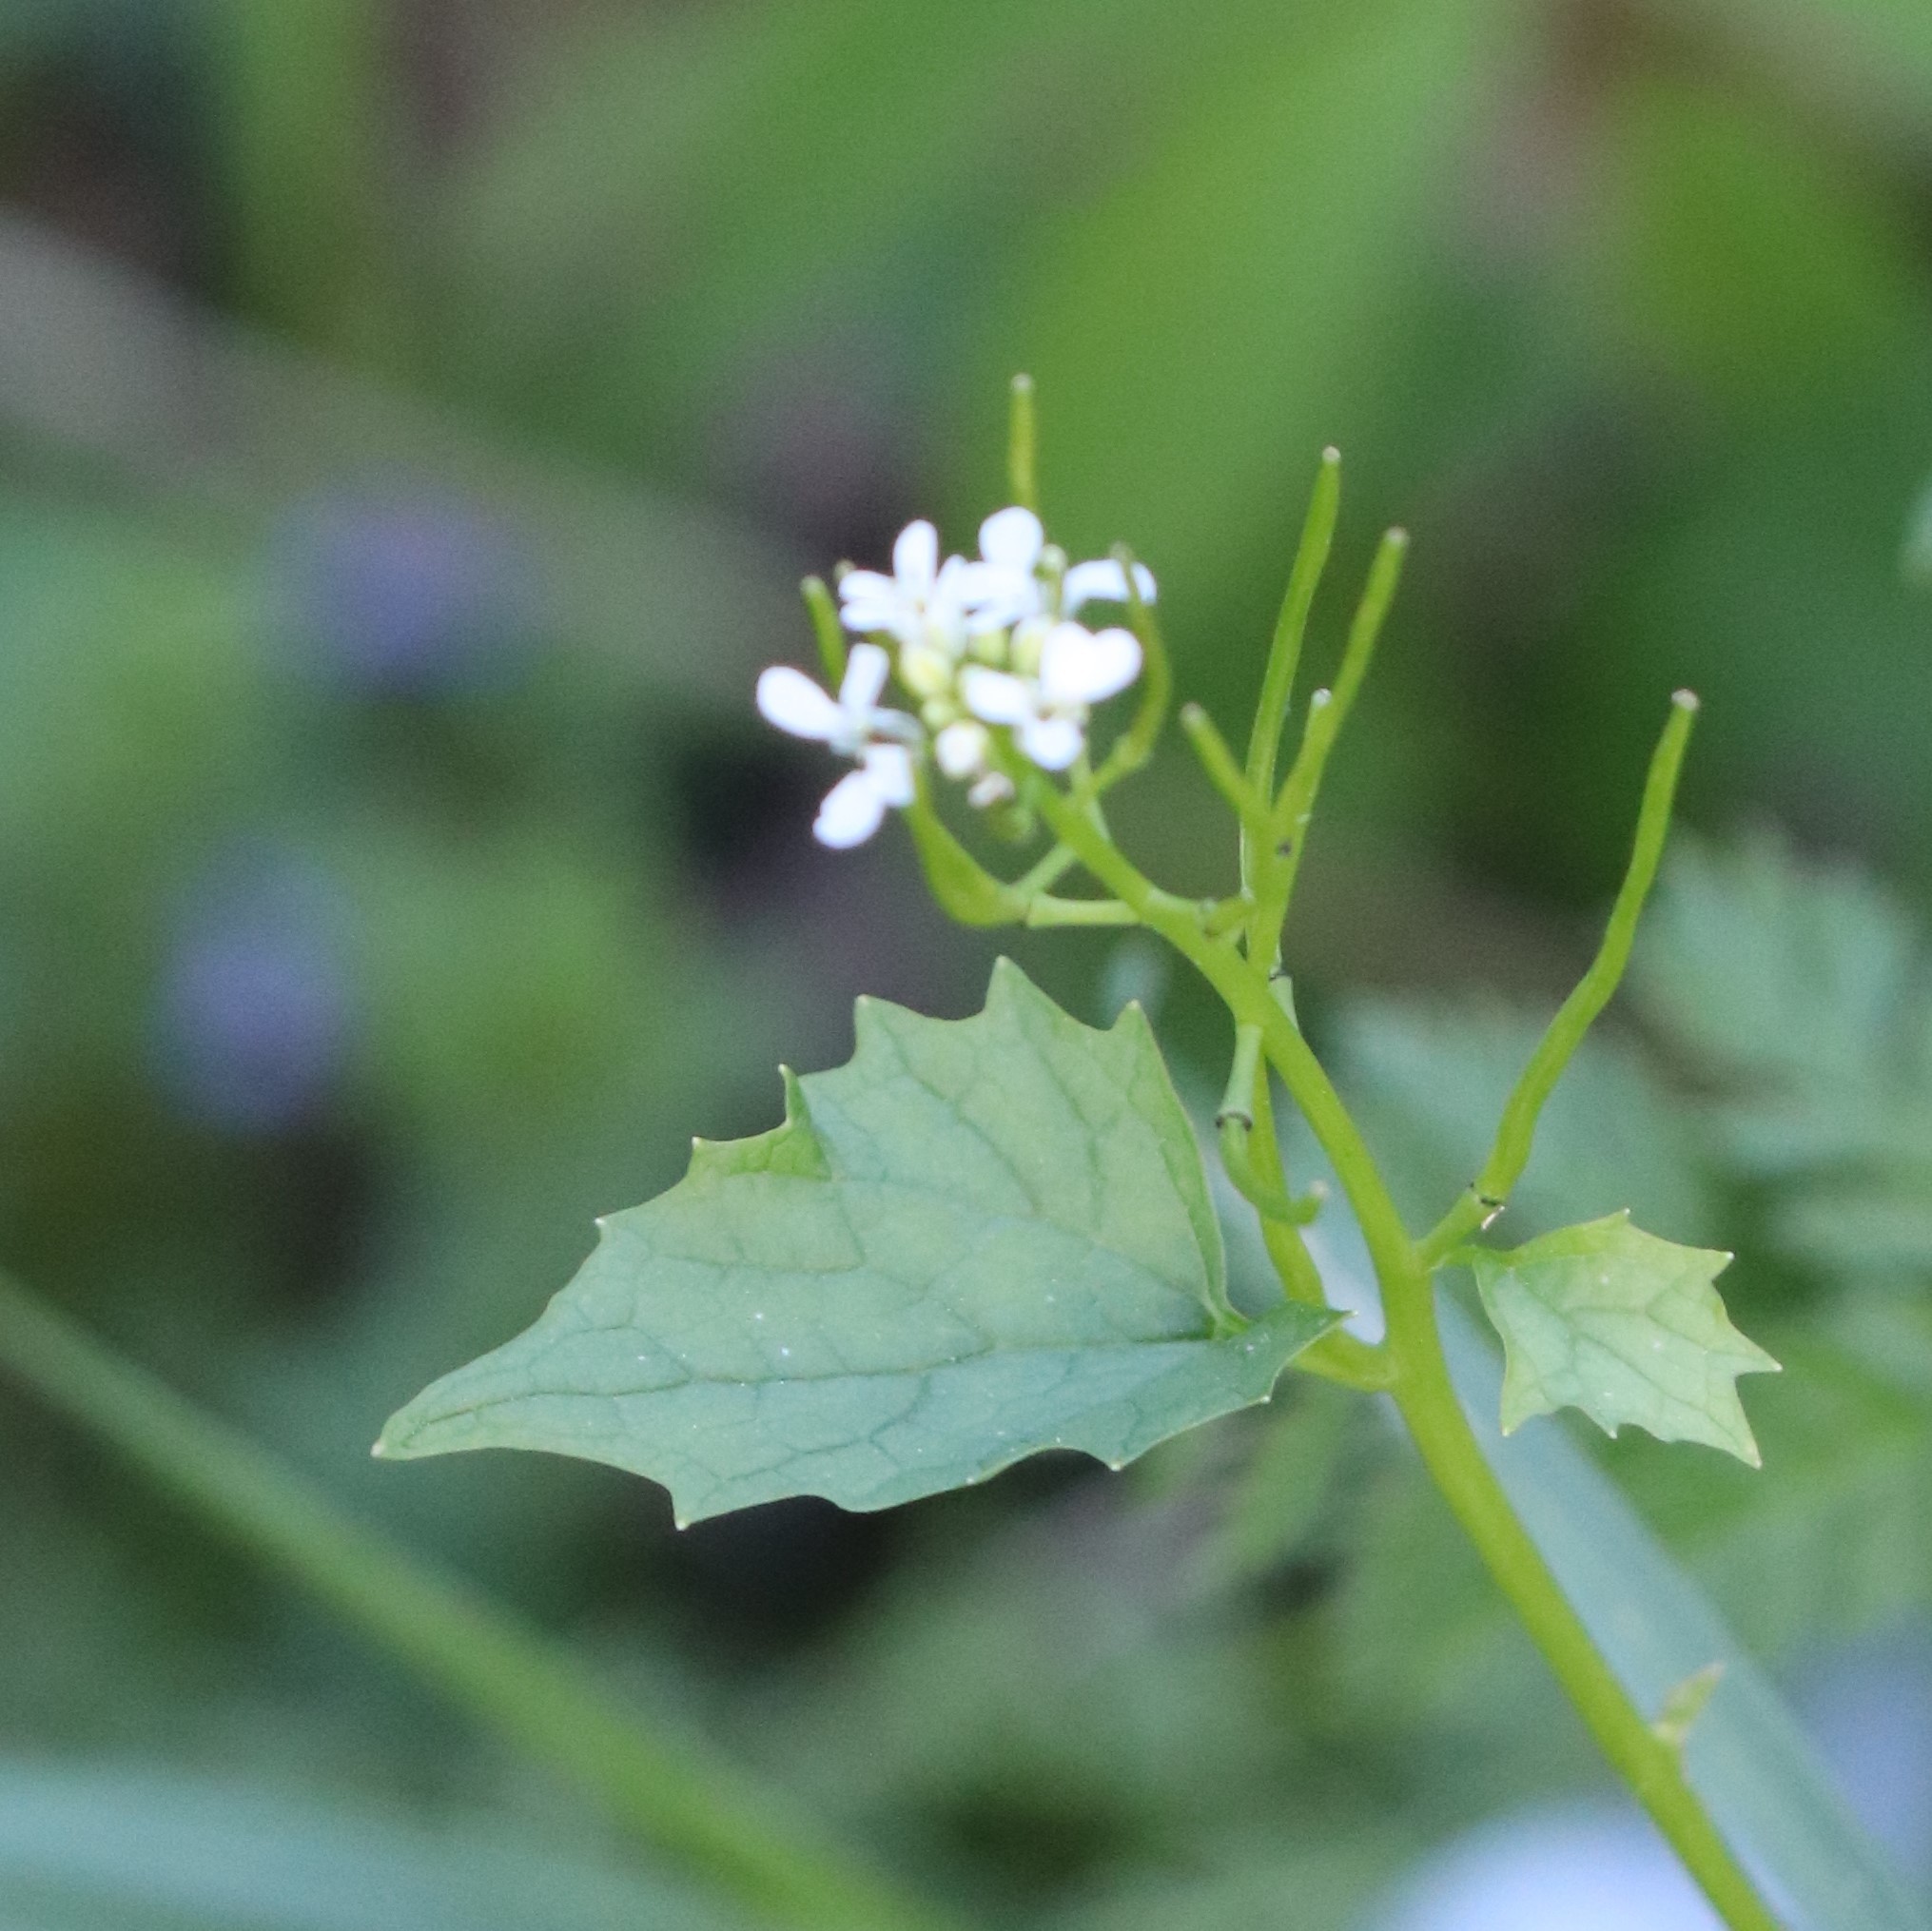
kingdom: Plantae
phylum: Tracheophyta
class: Magnoliopsida
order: Brassicales
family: Brassicaceae
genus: Alliaria
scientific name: Alliaria petiolata
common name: Garlic mustard
